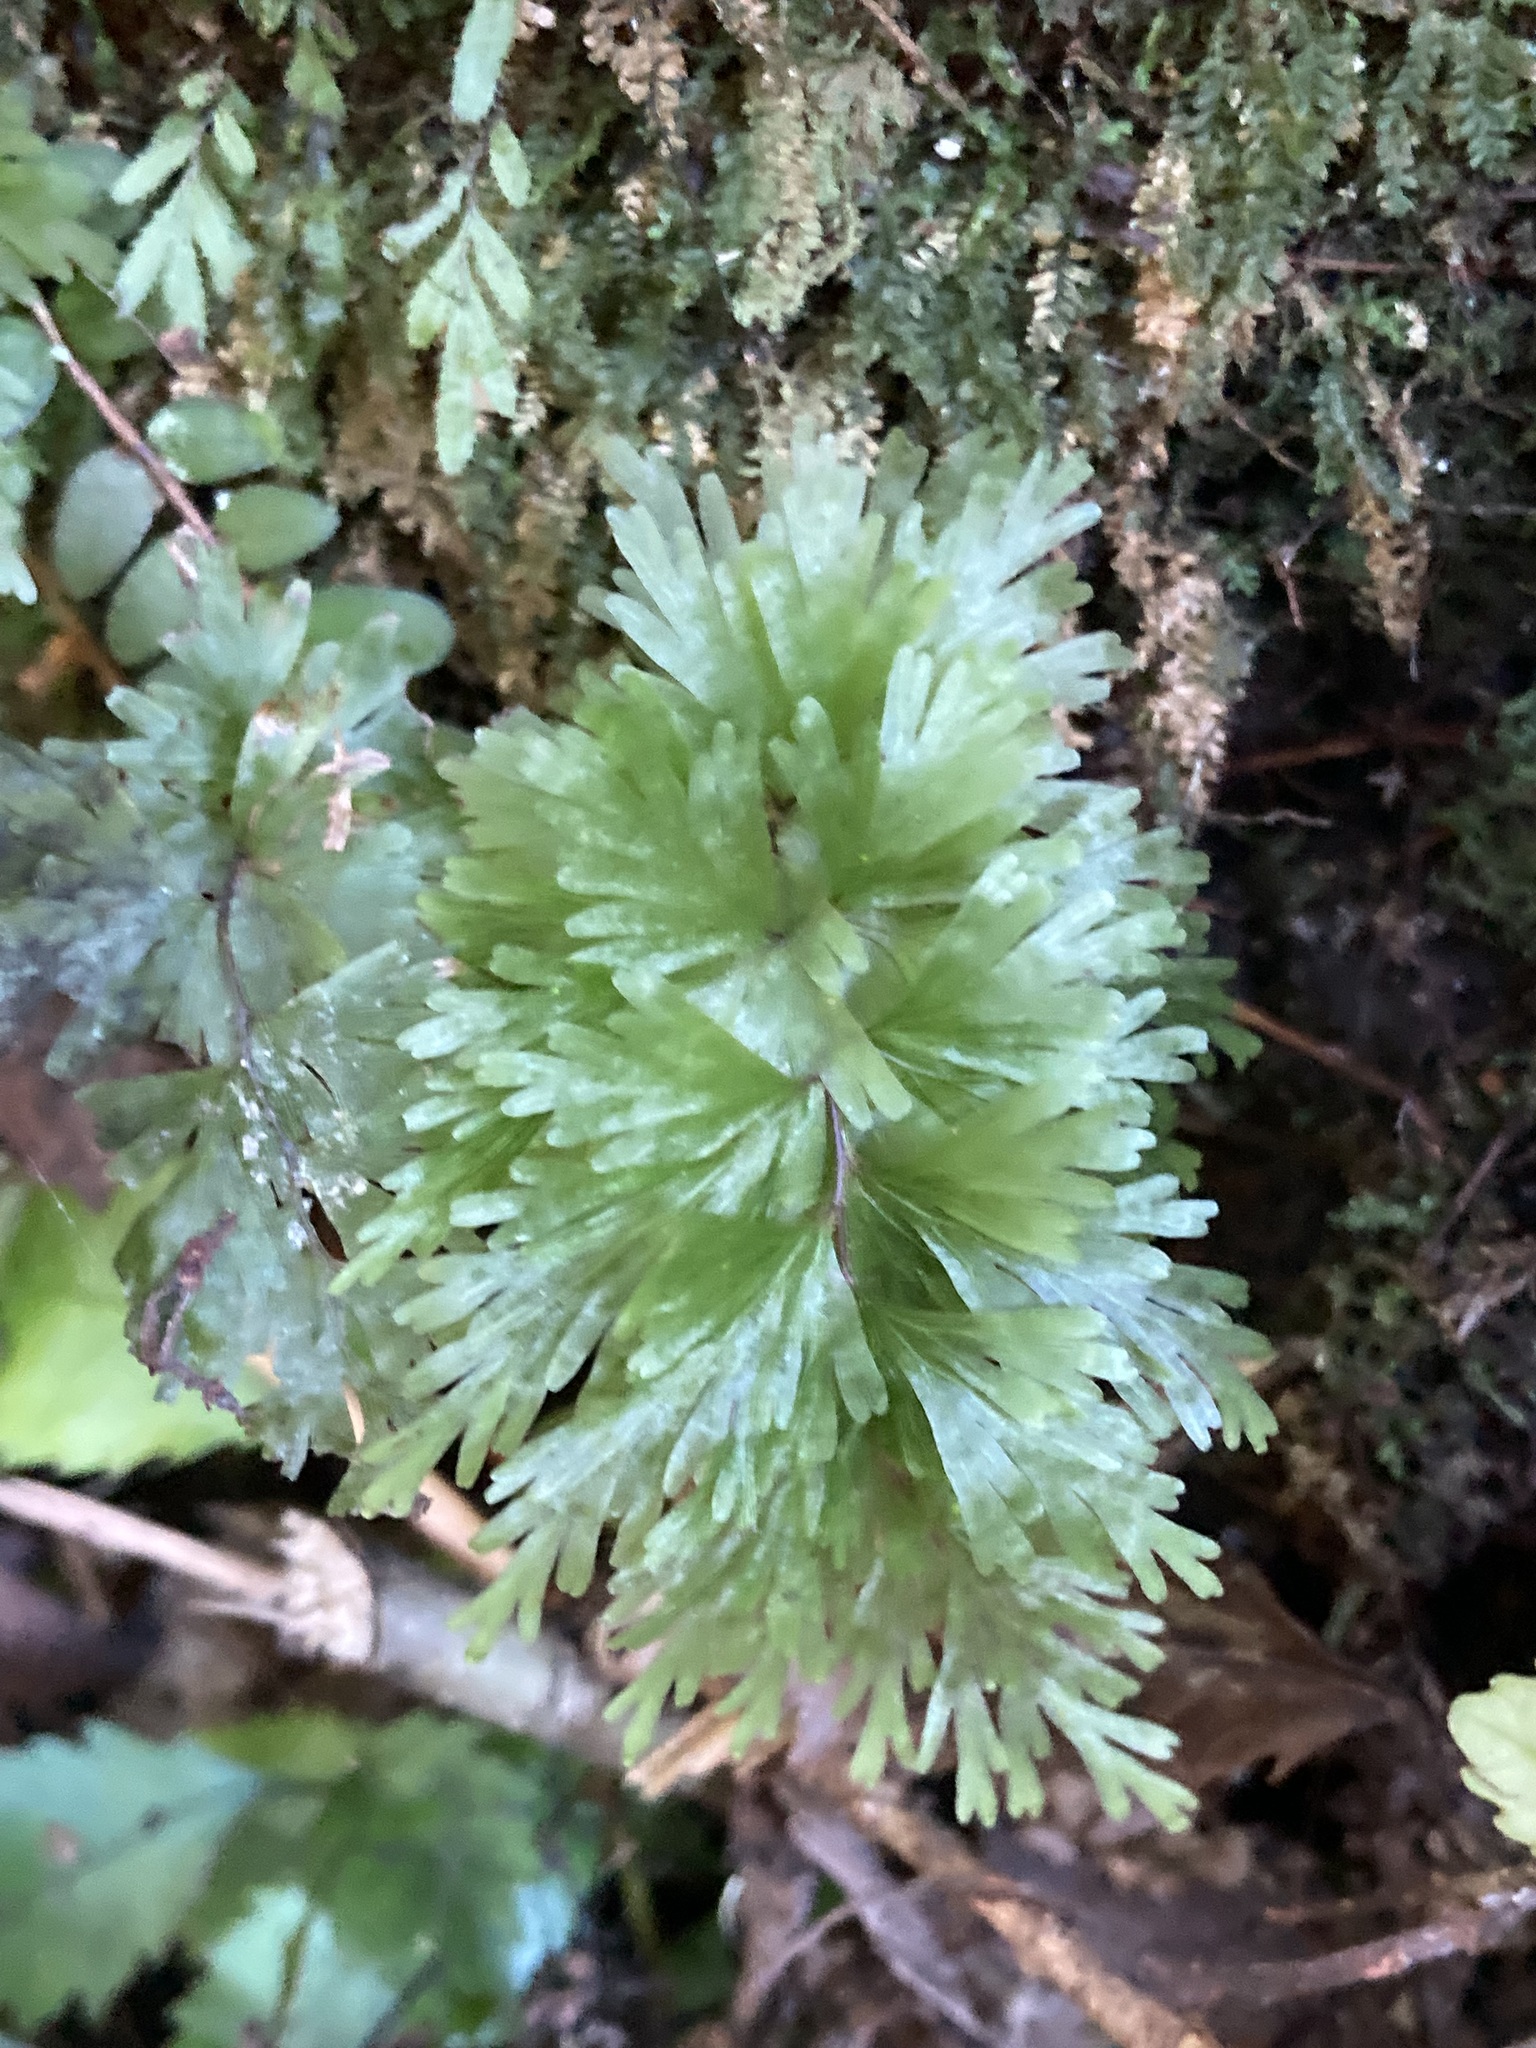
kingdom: Plantae
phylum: Tracheophyta
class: Polypodiopsida
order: Hymenophyllales
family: Hymenophyllaceae
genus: Hymenophyllum
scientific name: Hymenophyllum flabellatum
